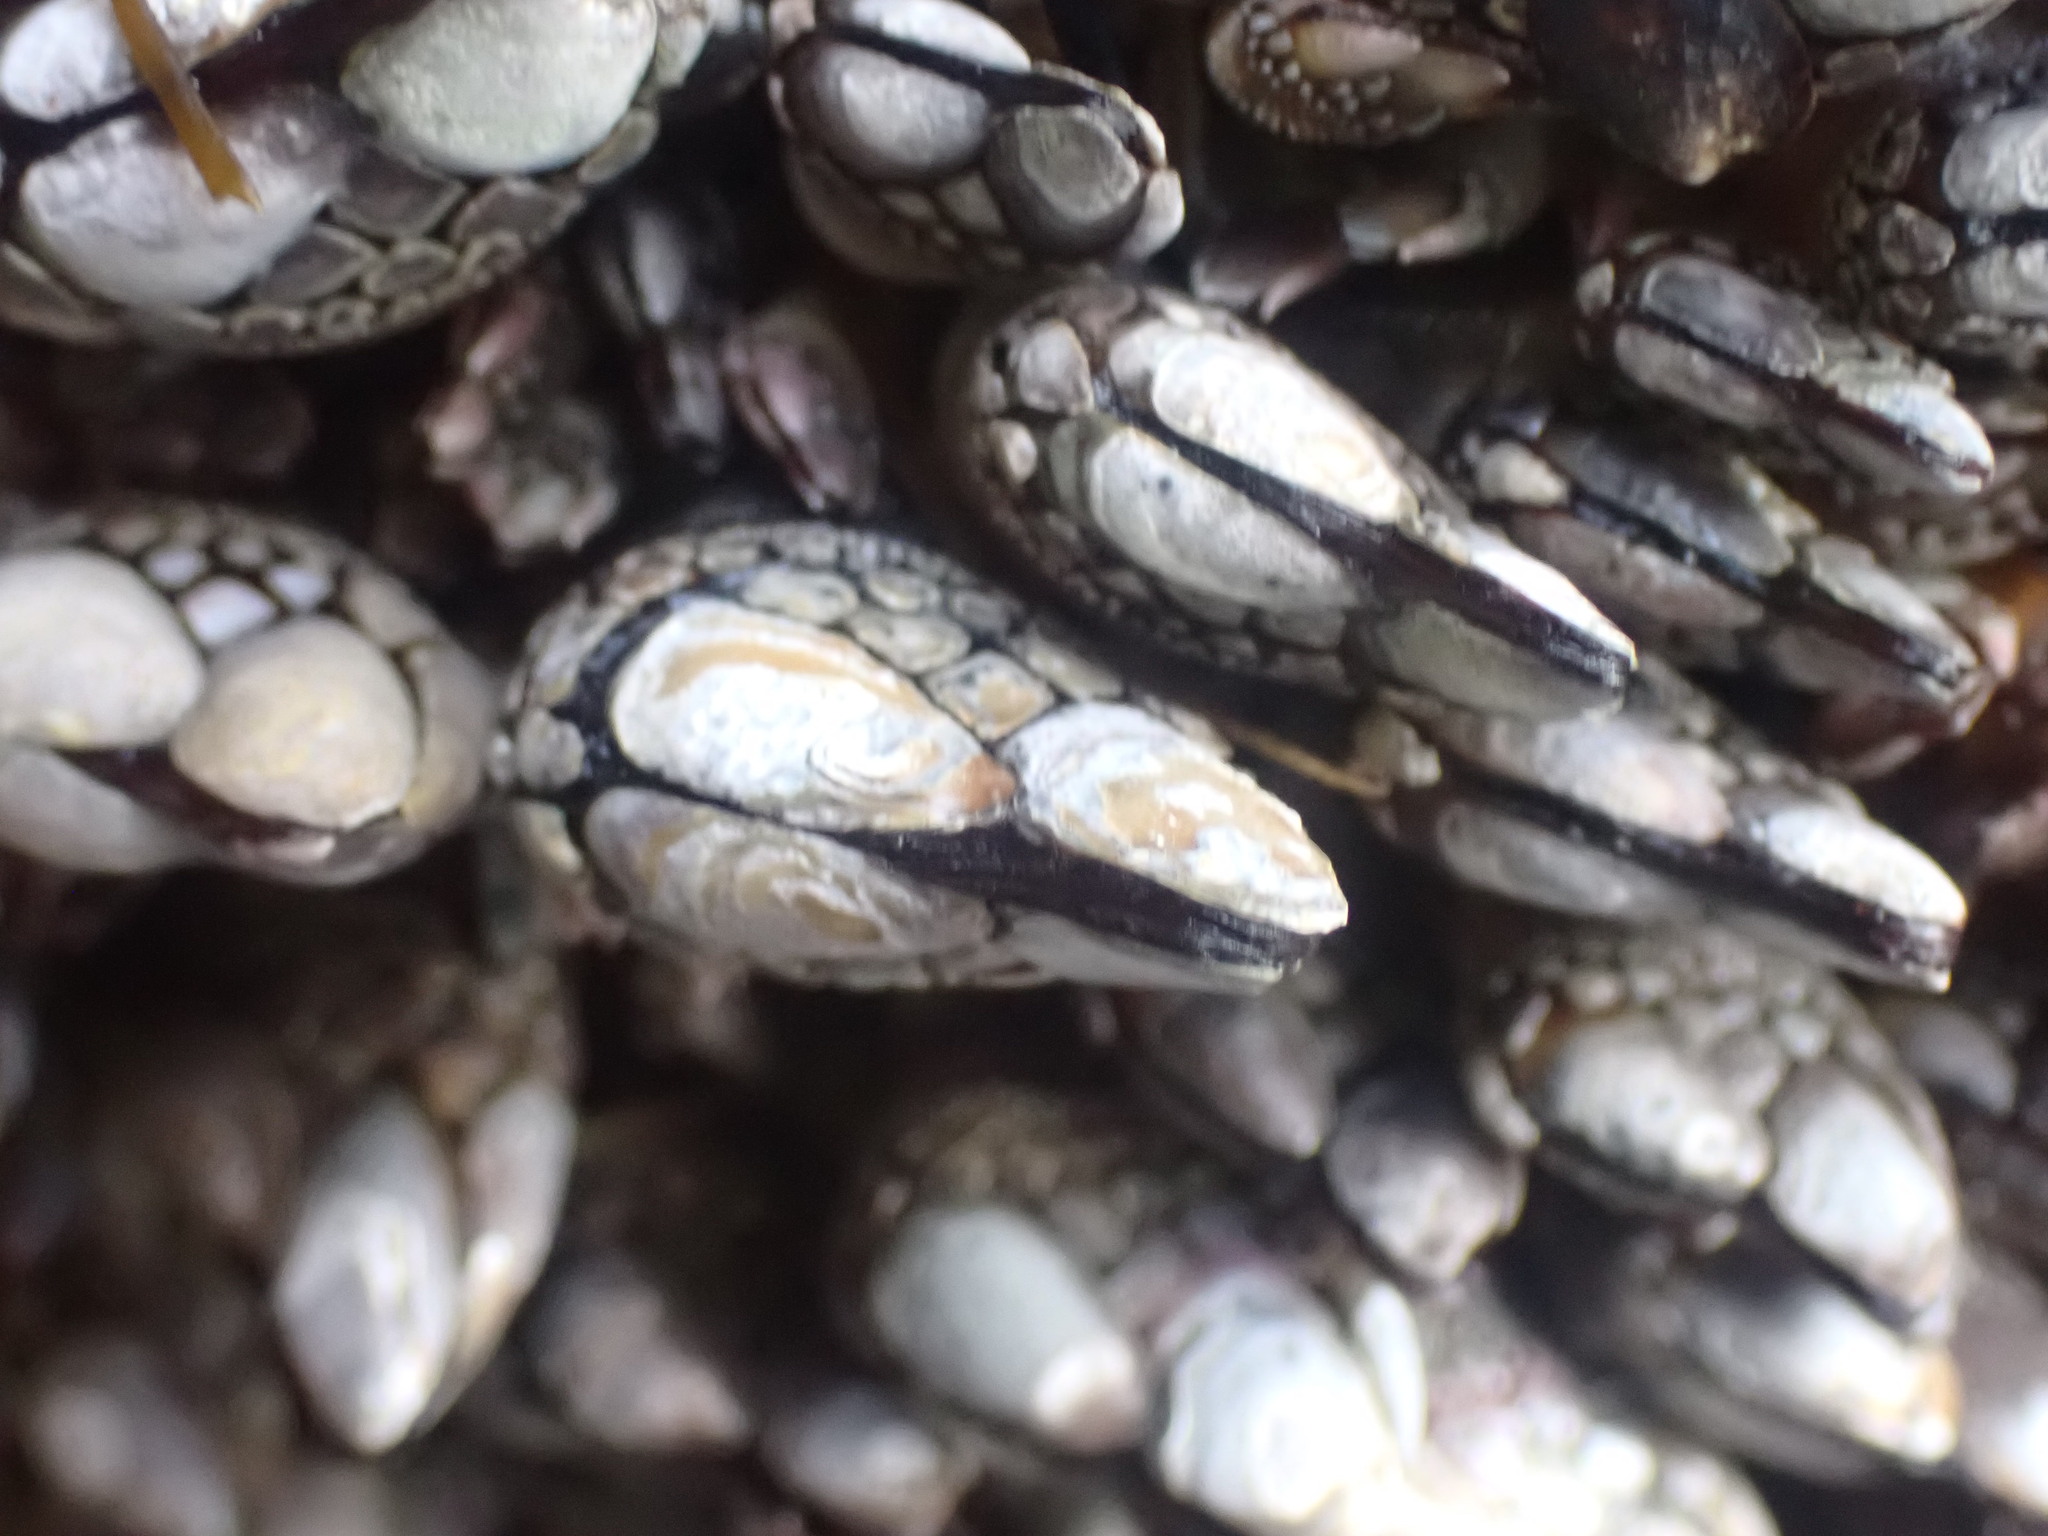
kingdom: Animalia
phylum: Arthropoda
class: Maxillopoda
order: Pedunculata
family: Pollicipedidae
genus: Pollicipes
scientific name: Pollicipes polymerus
